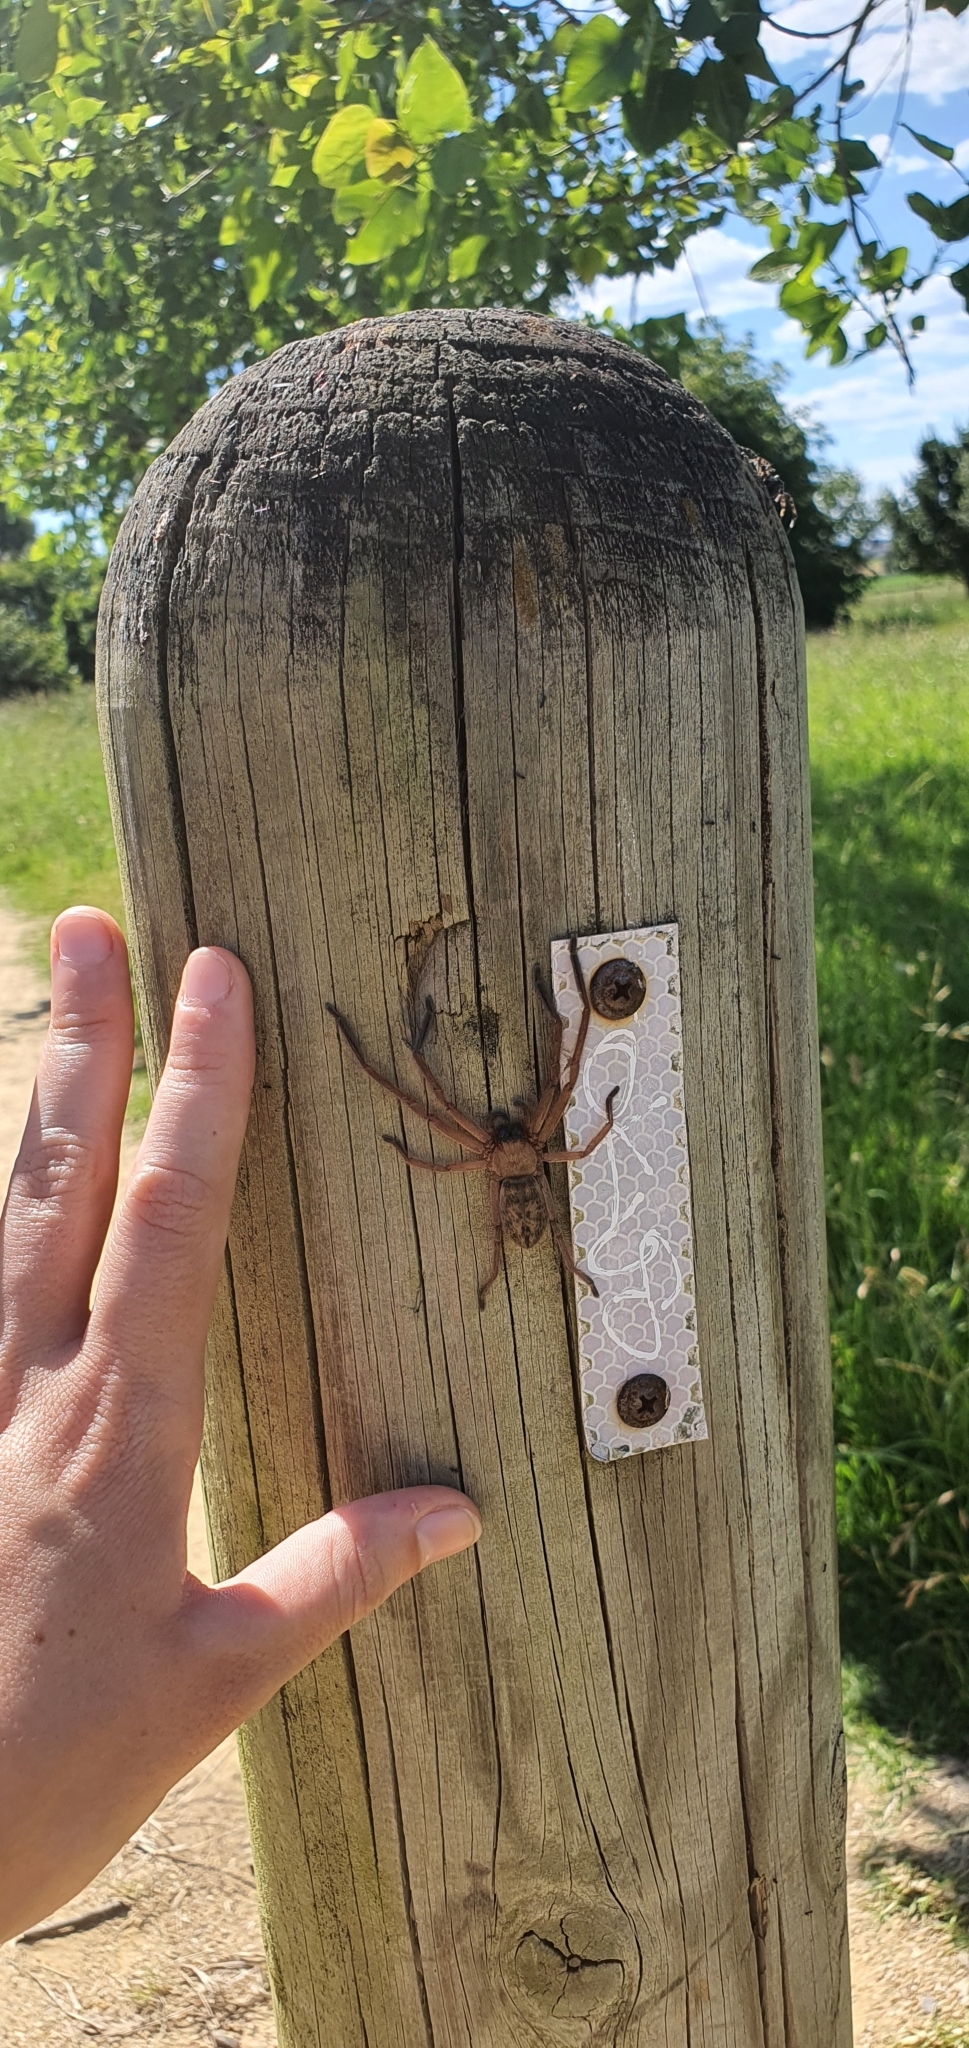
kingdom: Animalia
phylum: Arthropoda
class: Arachnida
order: Araneae
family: Sparassidae
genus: Delena
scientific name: Delena cancerides
